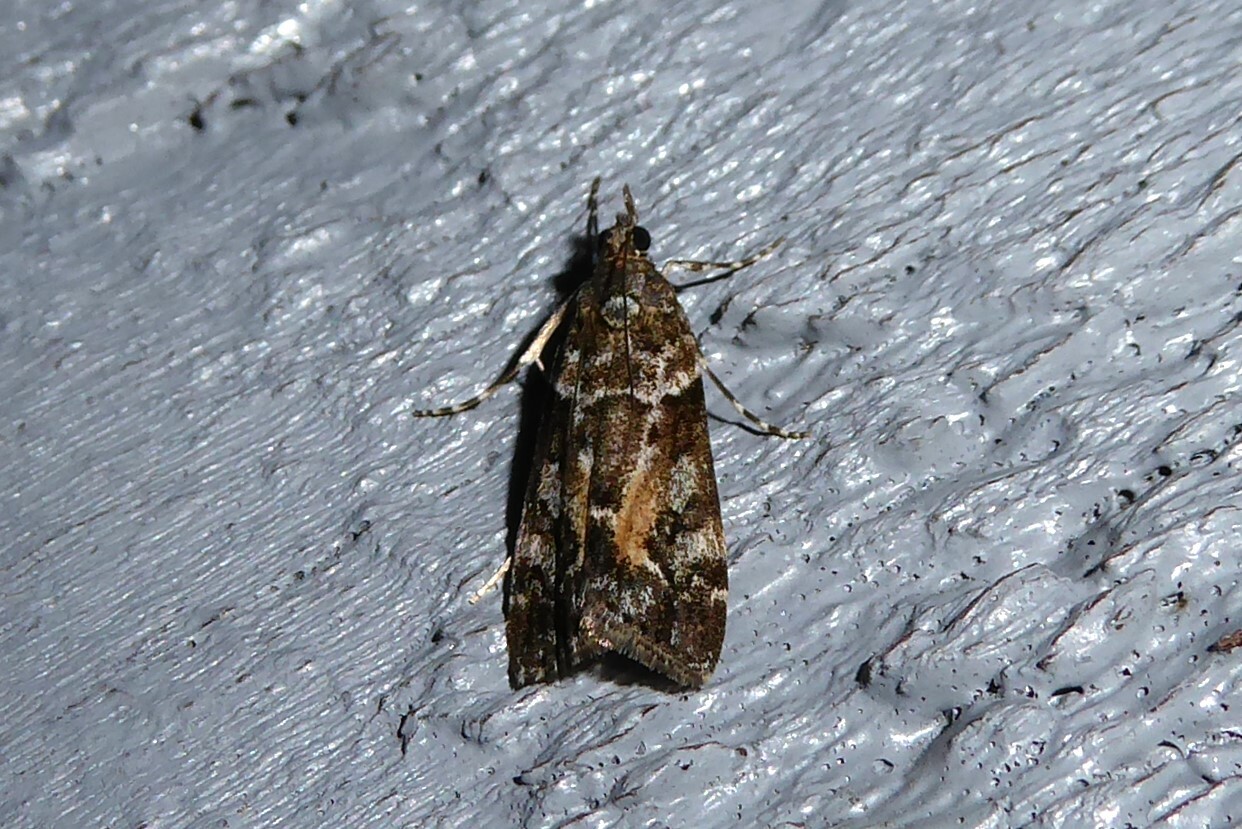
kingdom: Animalia
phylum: Arthropoda
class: Insecta
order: Lepidoptera
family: Crambidae
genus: Eudonia
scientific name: Eudonia submarginalis
